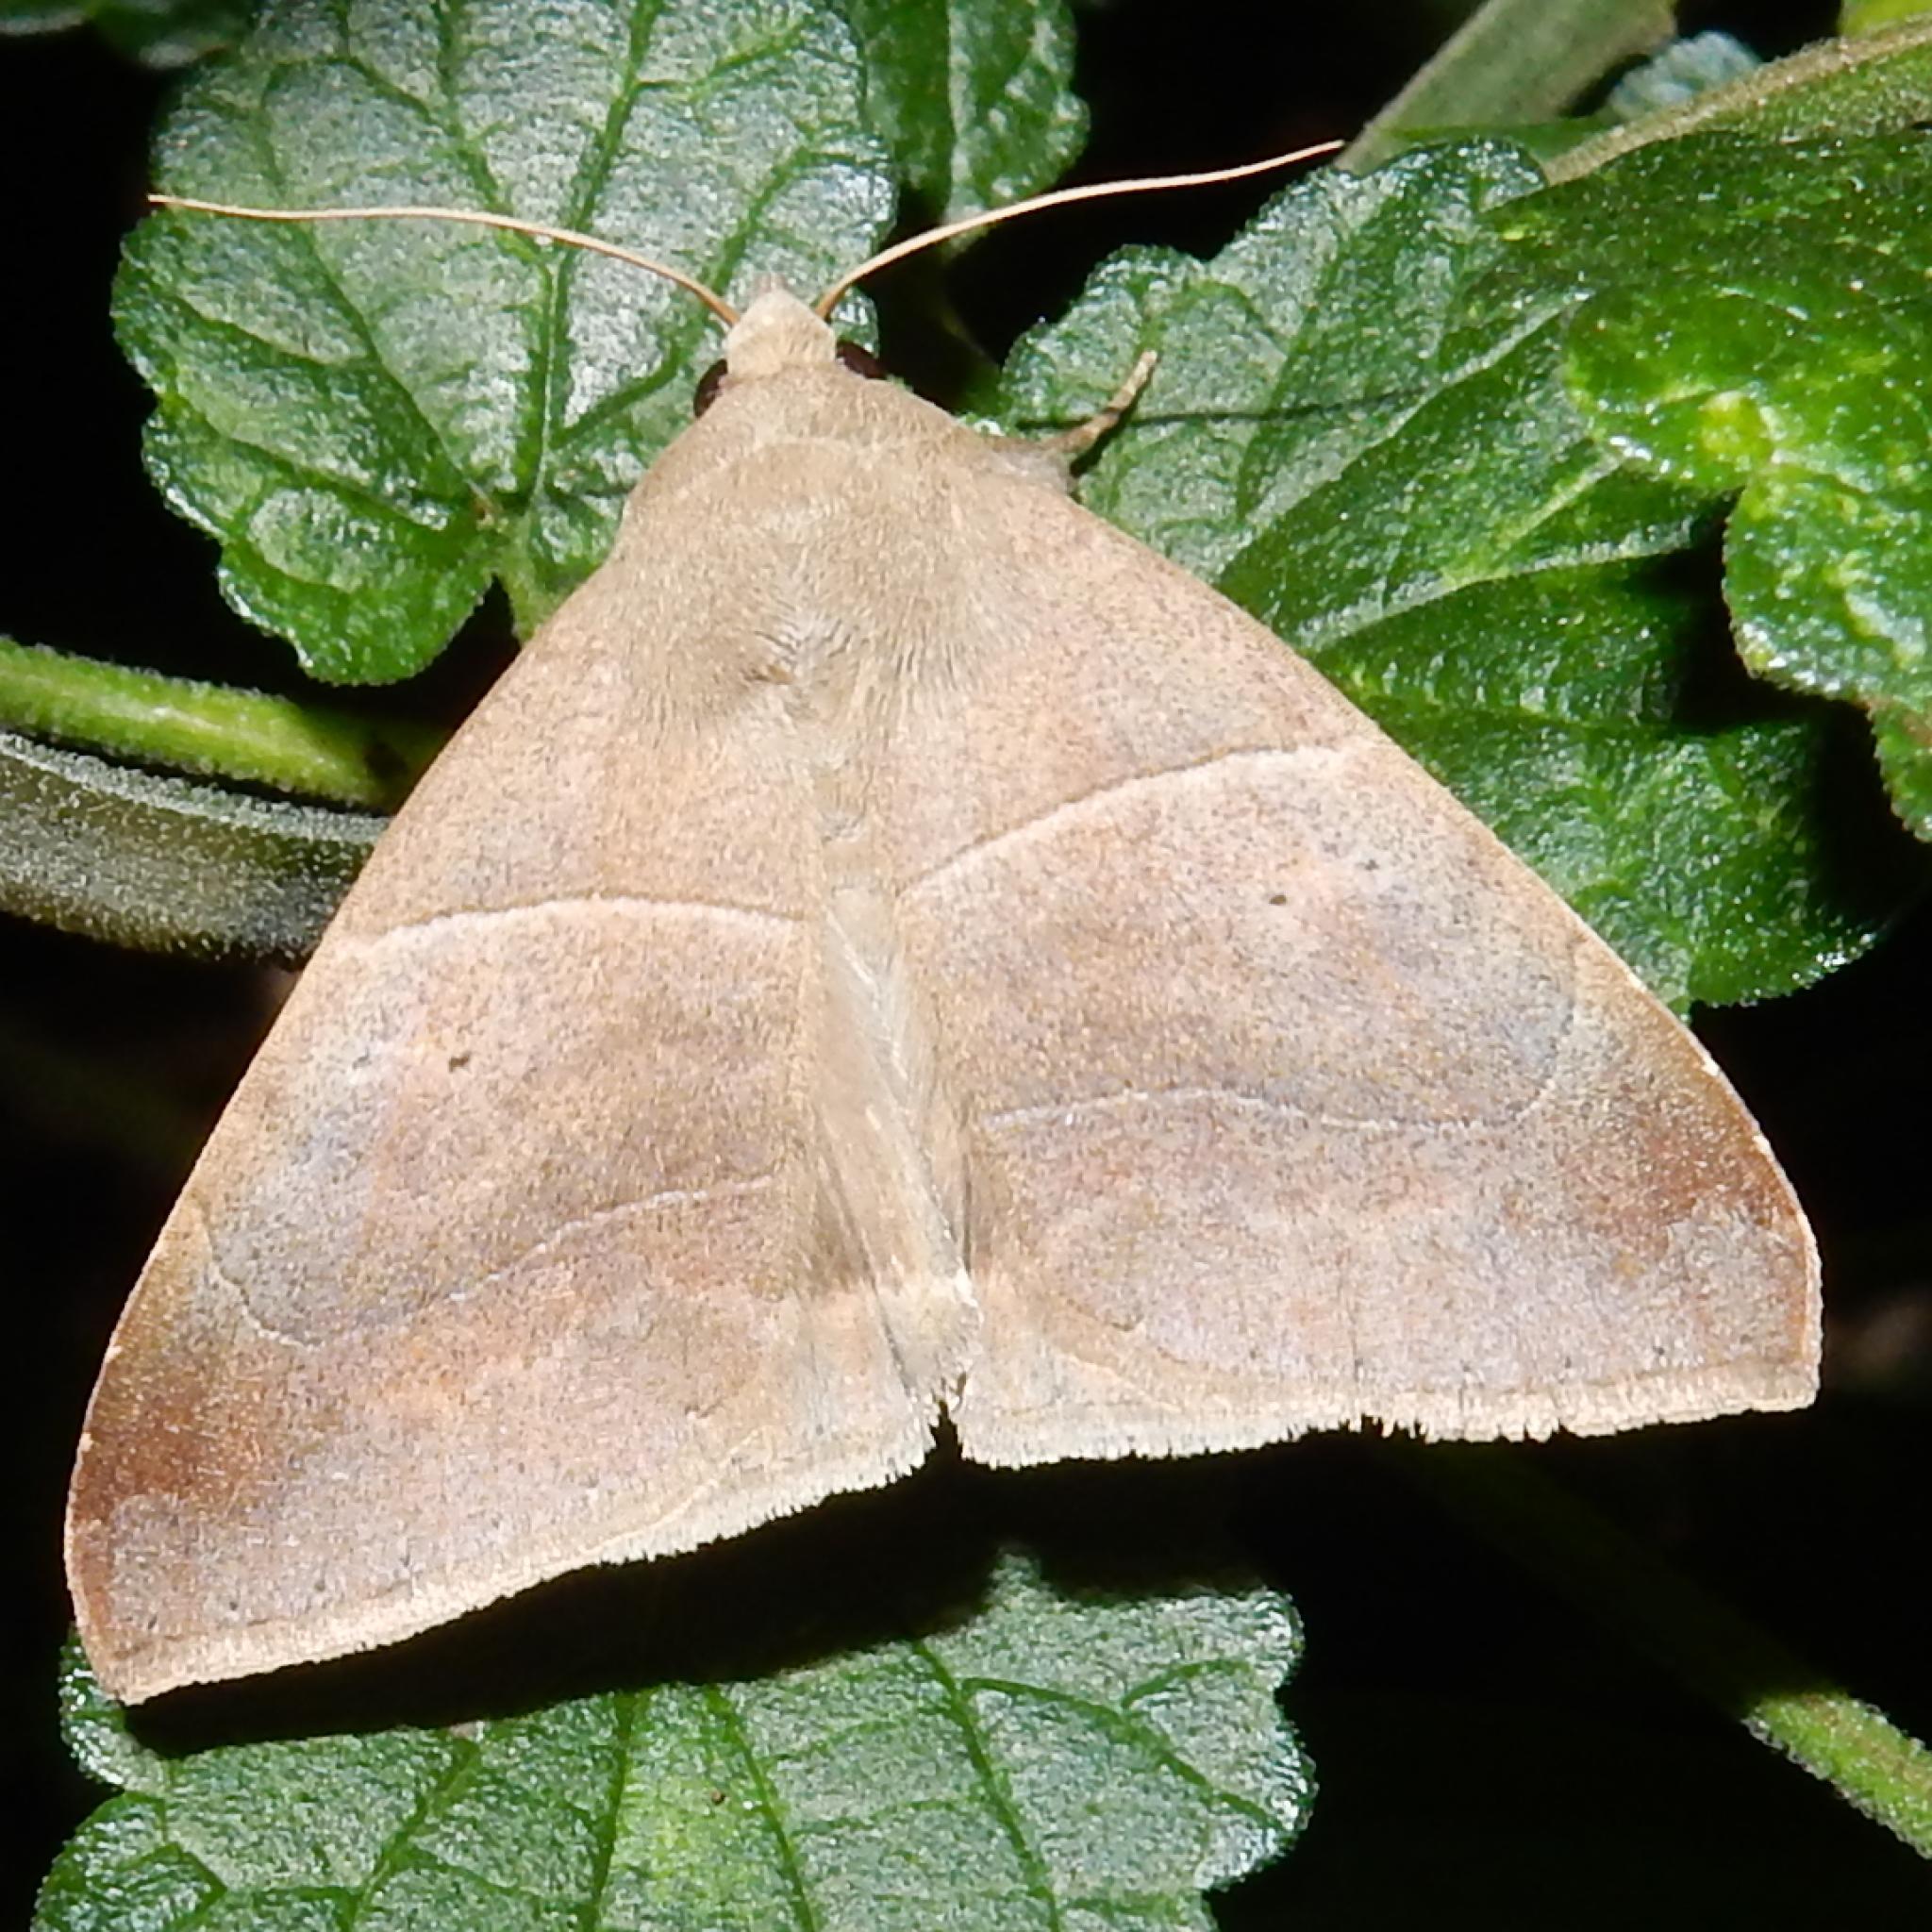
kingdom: Animalia
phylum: Arthropoda
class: Insecta
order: Lepidoptera
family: Erebidae
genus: Achaea
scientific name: Achaea indeterminata
